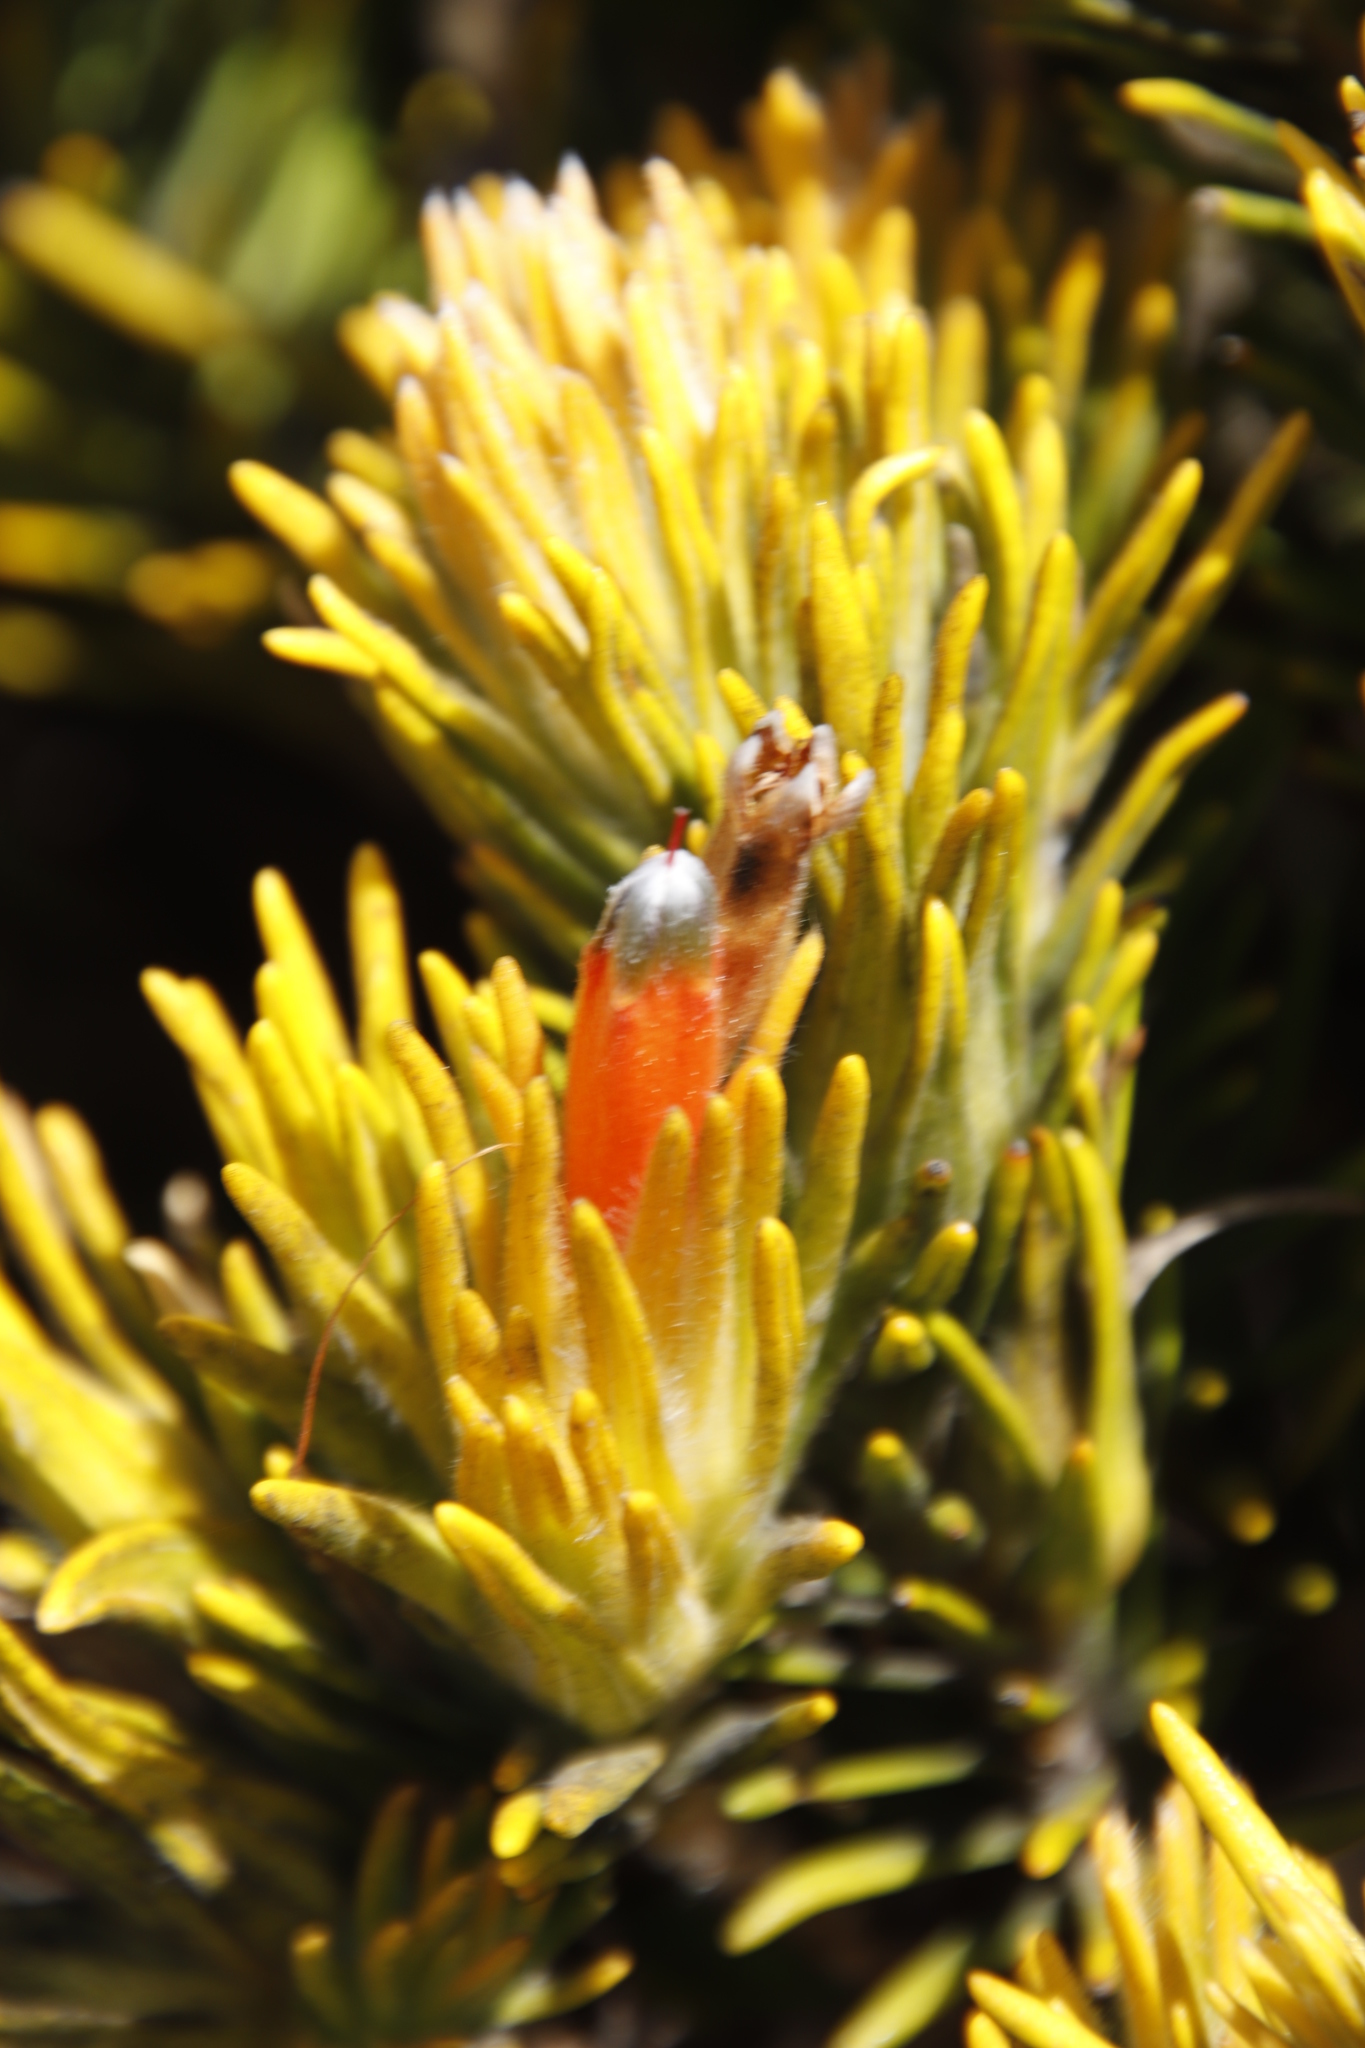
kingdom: Plantae
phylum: Tracheophyta
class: Magnoliopsida
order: Lamiales
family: Stilbaceae
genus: Retzia
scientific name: Retzia capensis
